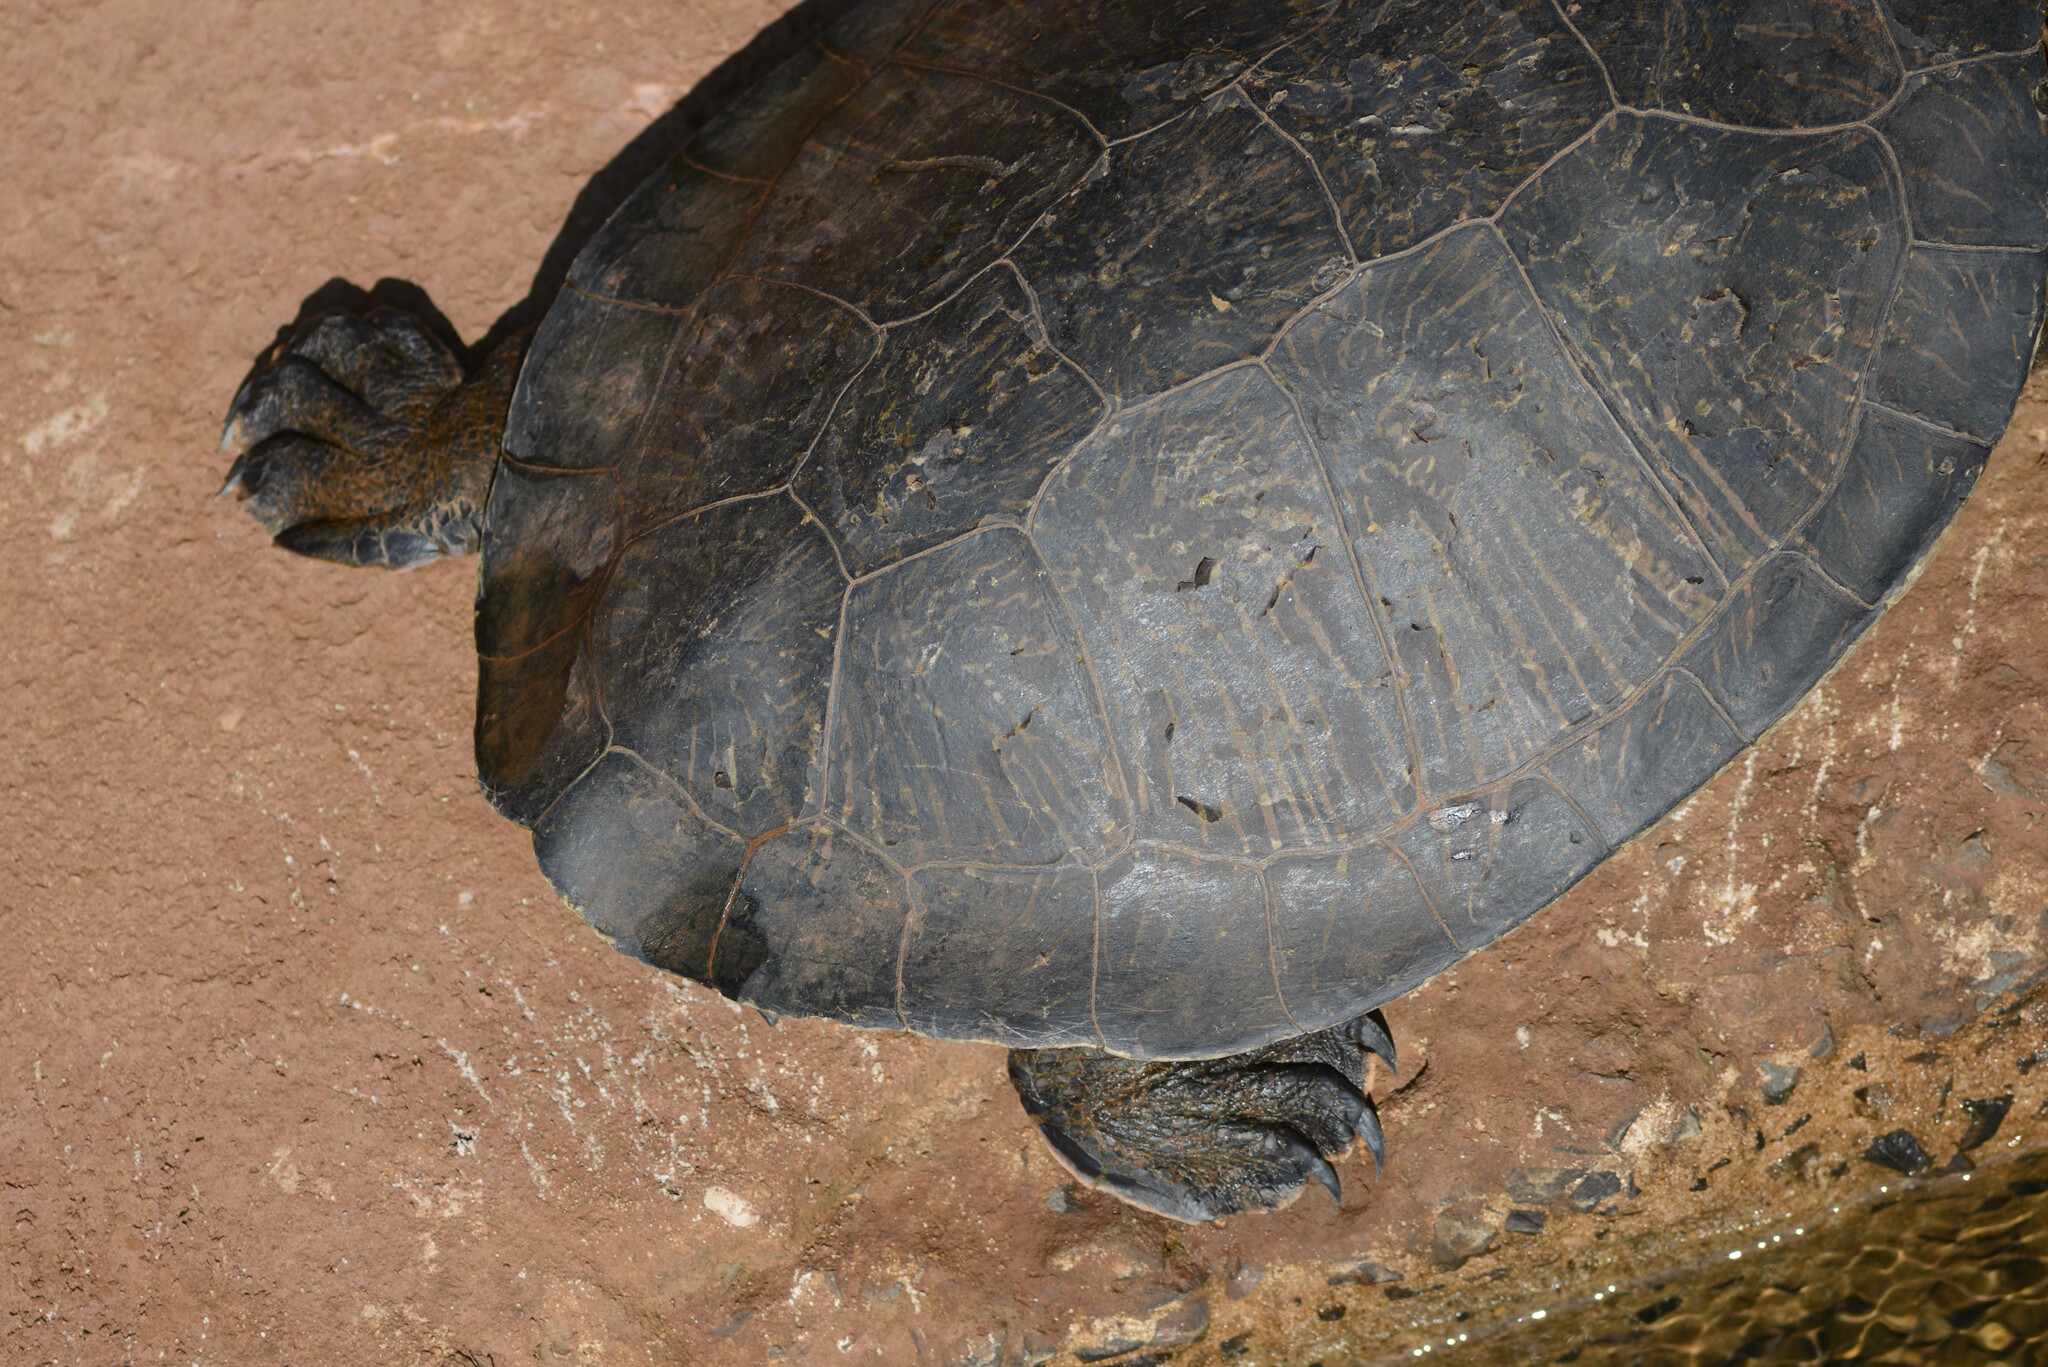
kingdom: Animalia
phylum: Chordata
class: Testudines
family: Chelidae
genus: Phrynops
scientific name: Phrynops williamsi
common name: Williams side-necked turtle
